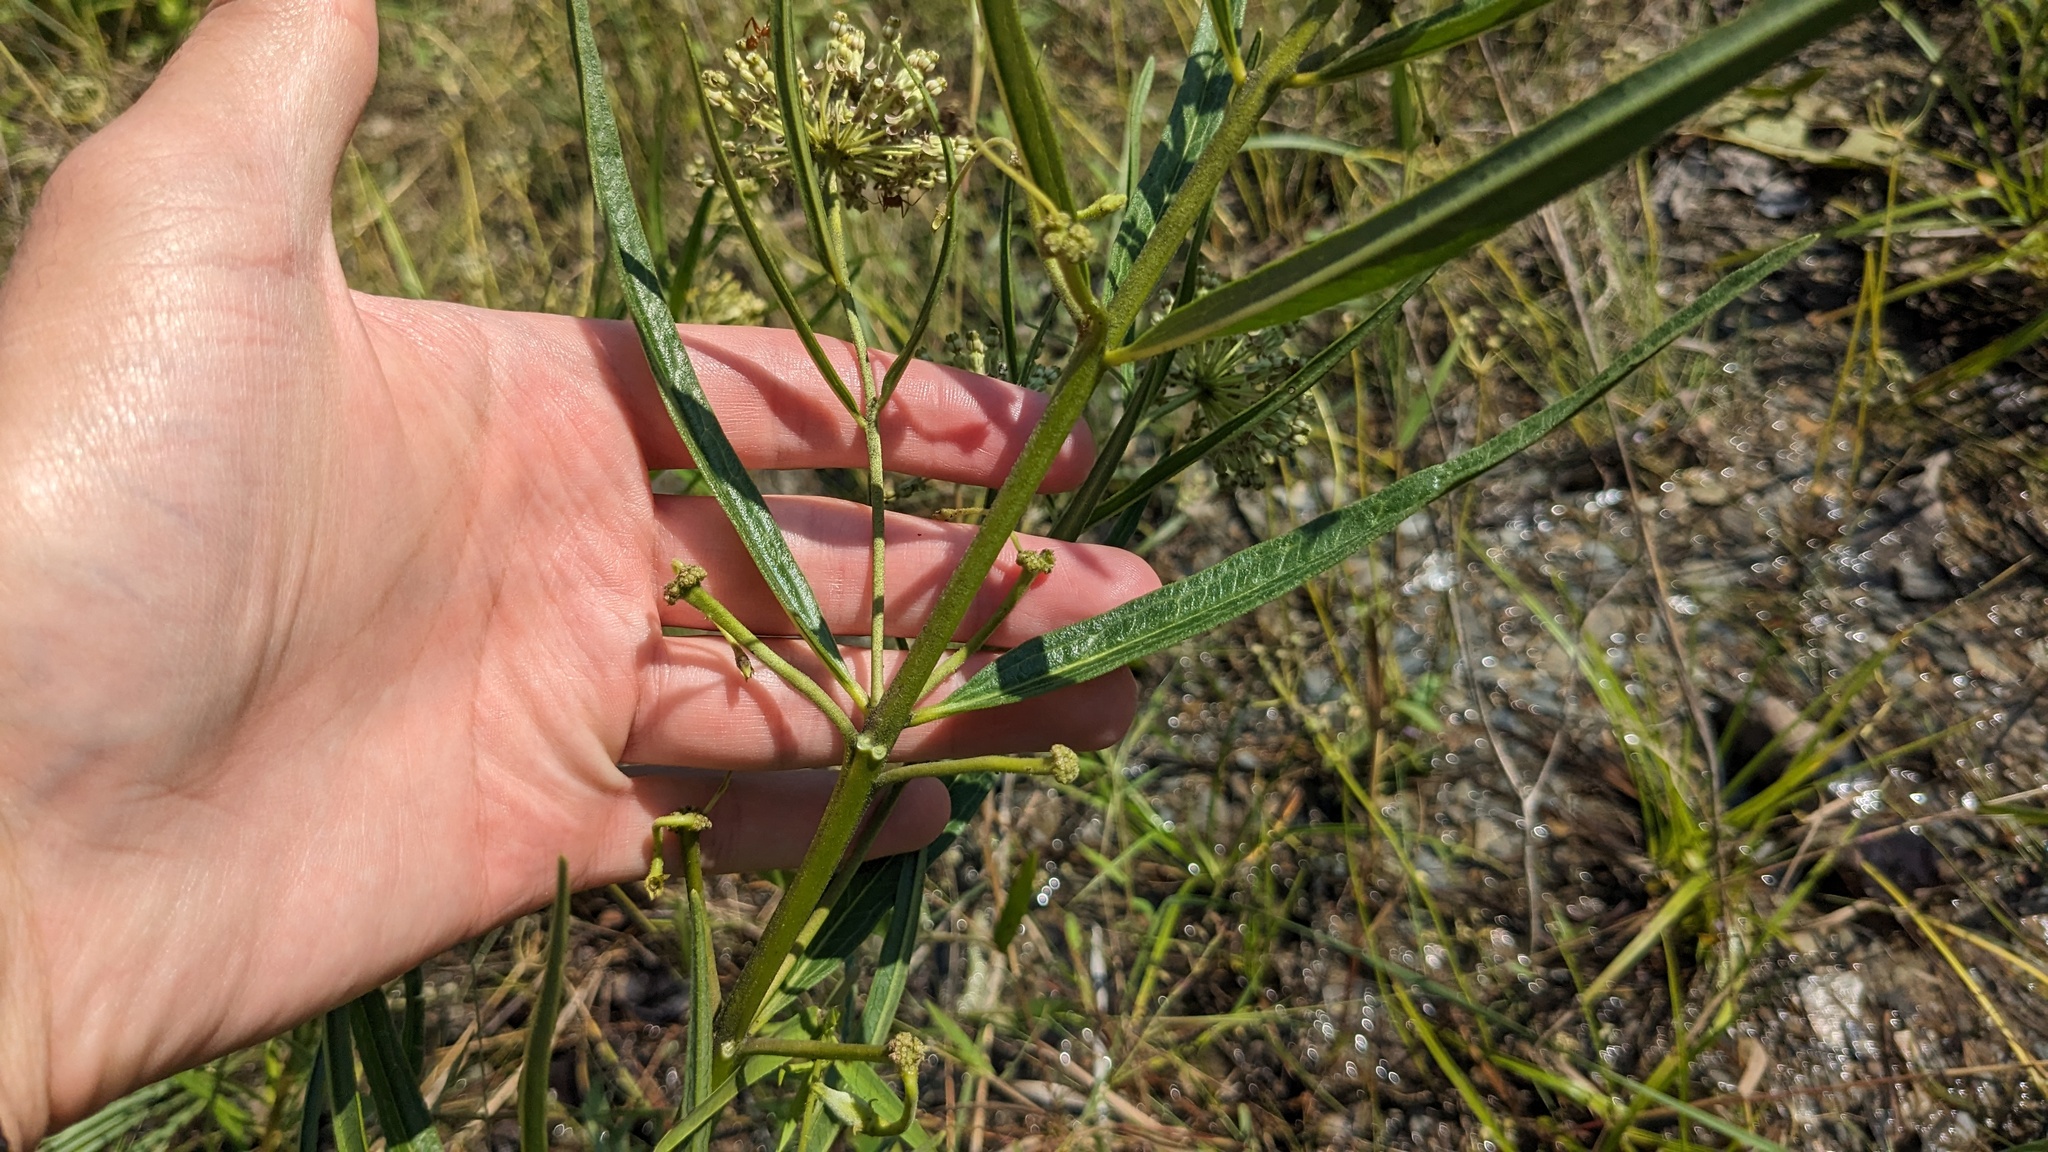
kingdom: Plantae
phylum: Tracheophyta
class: Magnoliopsida
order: Gentianales
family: Apocynaceae
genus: Asclepias
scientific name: Asclepias hirtella
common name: Prairie milkweed
